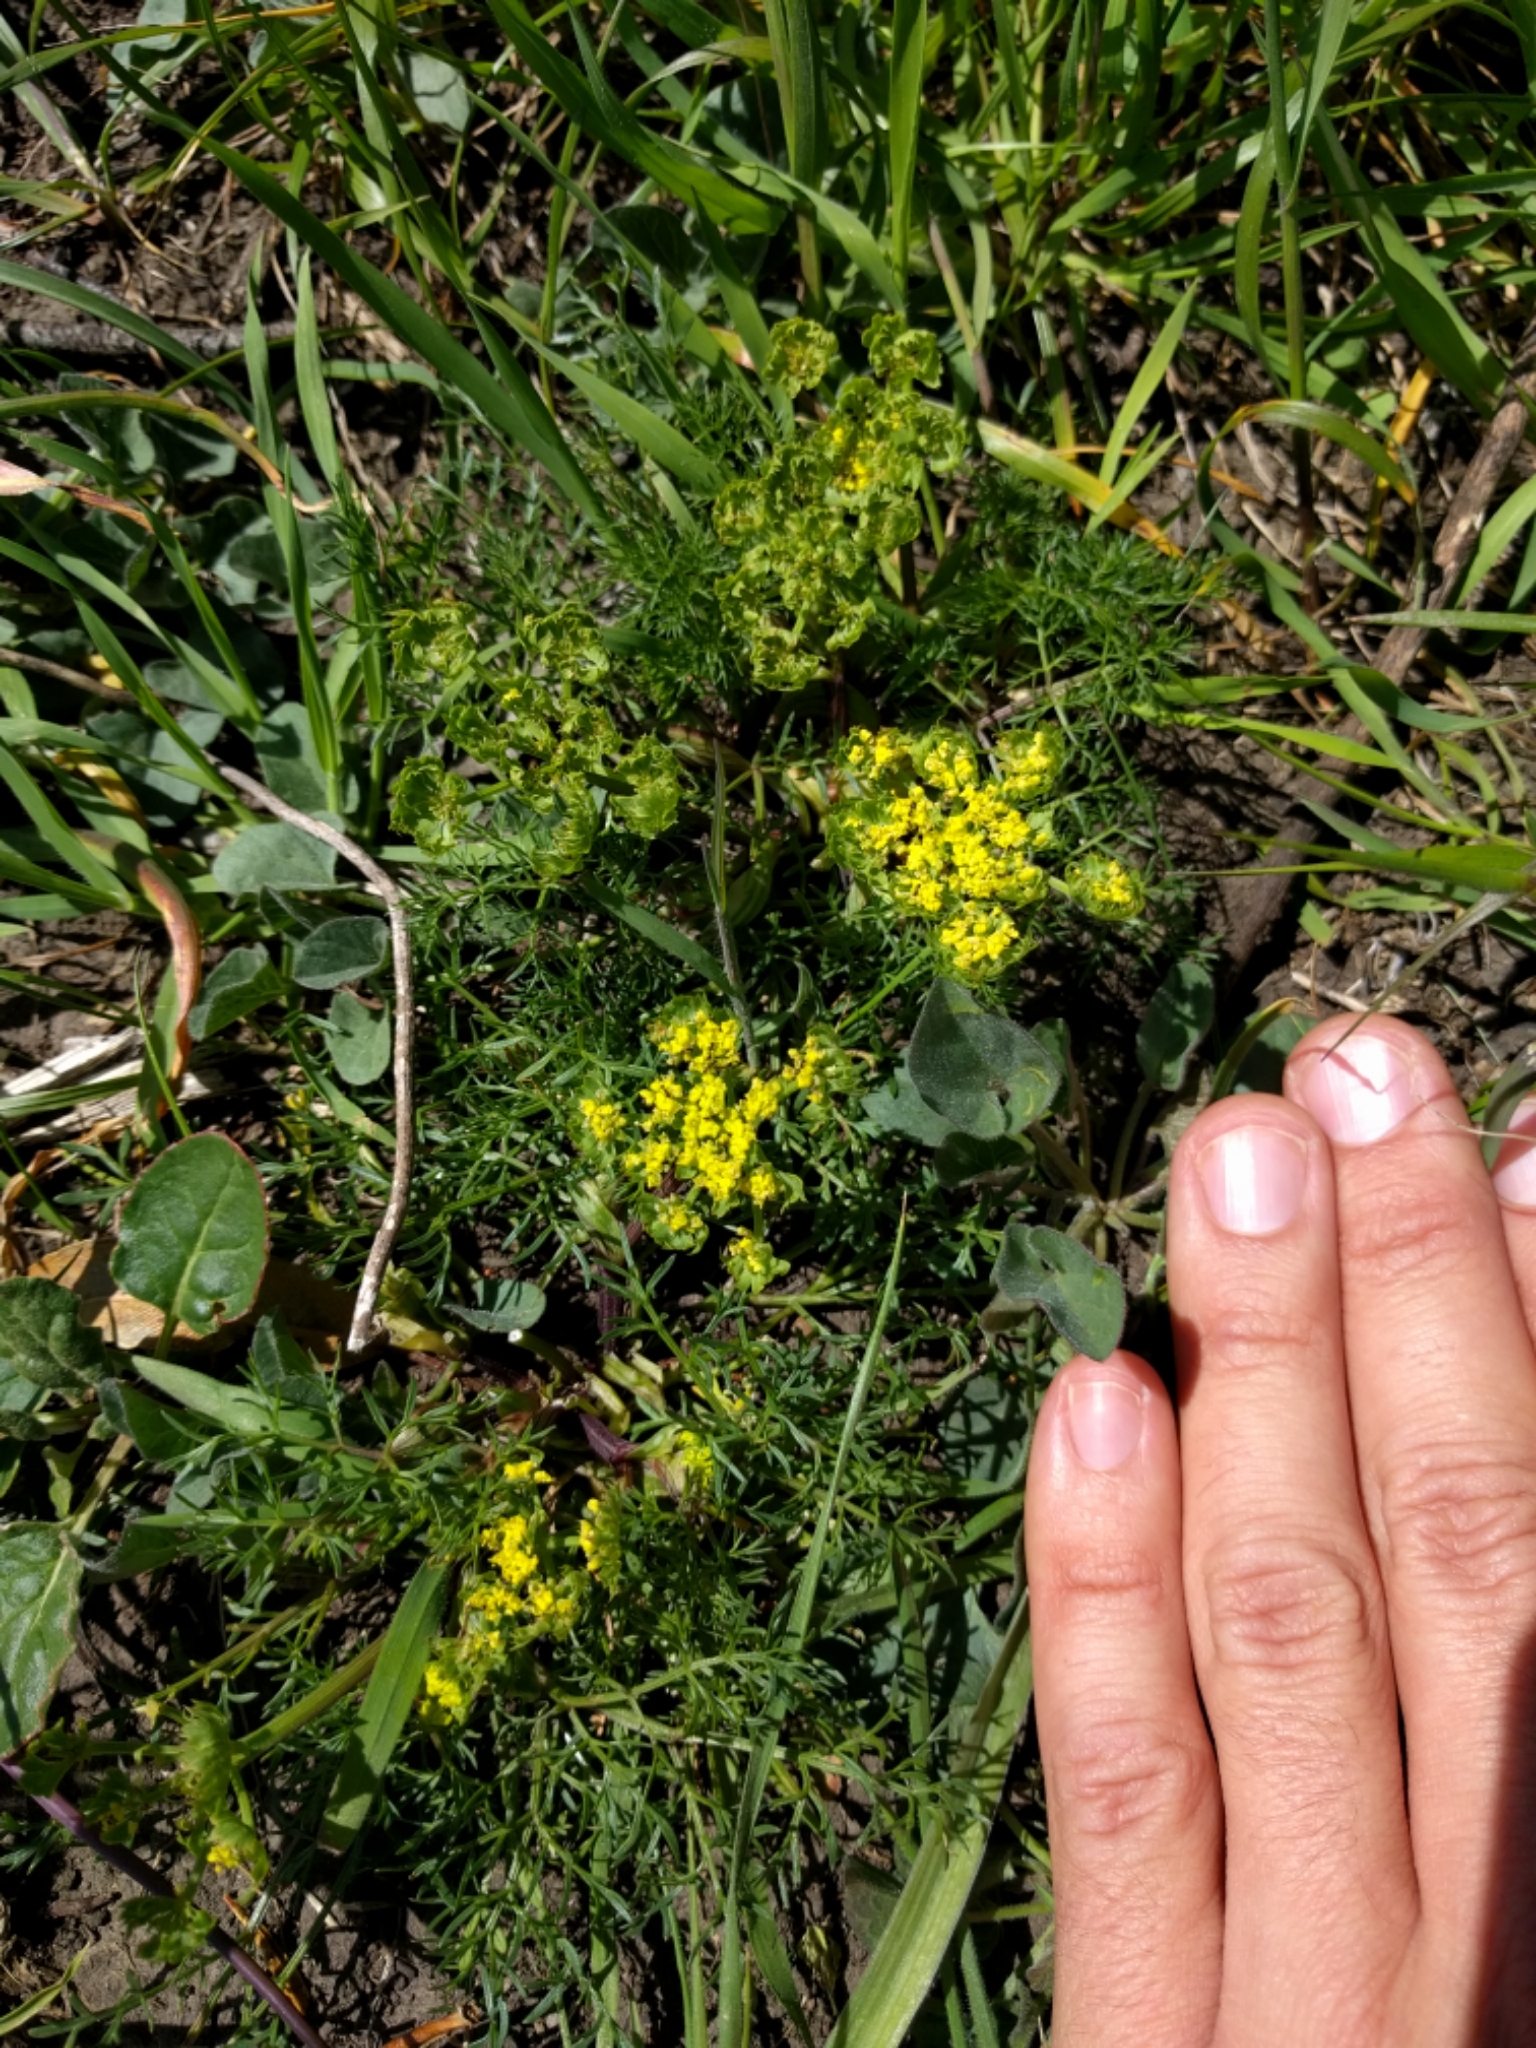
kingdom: Plantae
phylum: Tracheophyta
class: Magnoliopsida
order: Apiales
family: Apiaceae
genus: Lomatium
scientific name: Lomatium utriculatum
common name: Fine-leaf desert-parsley
